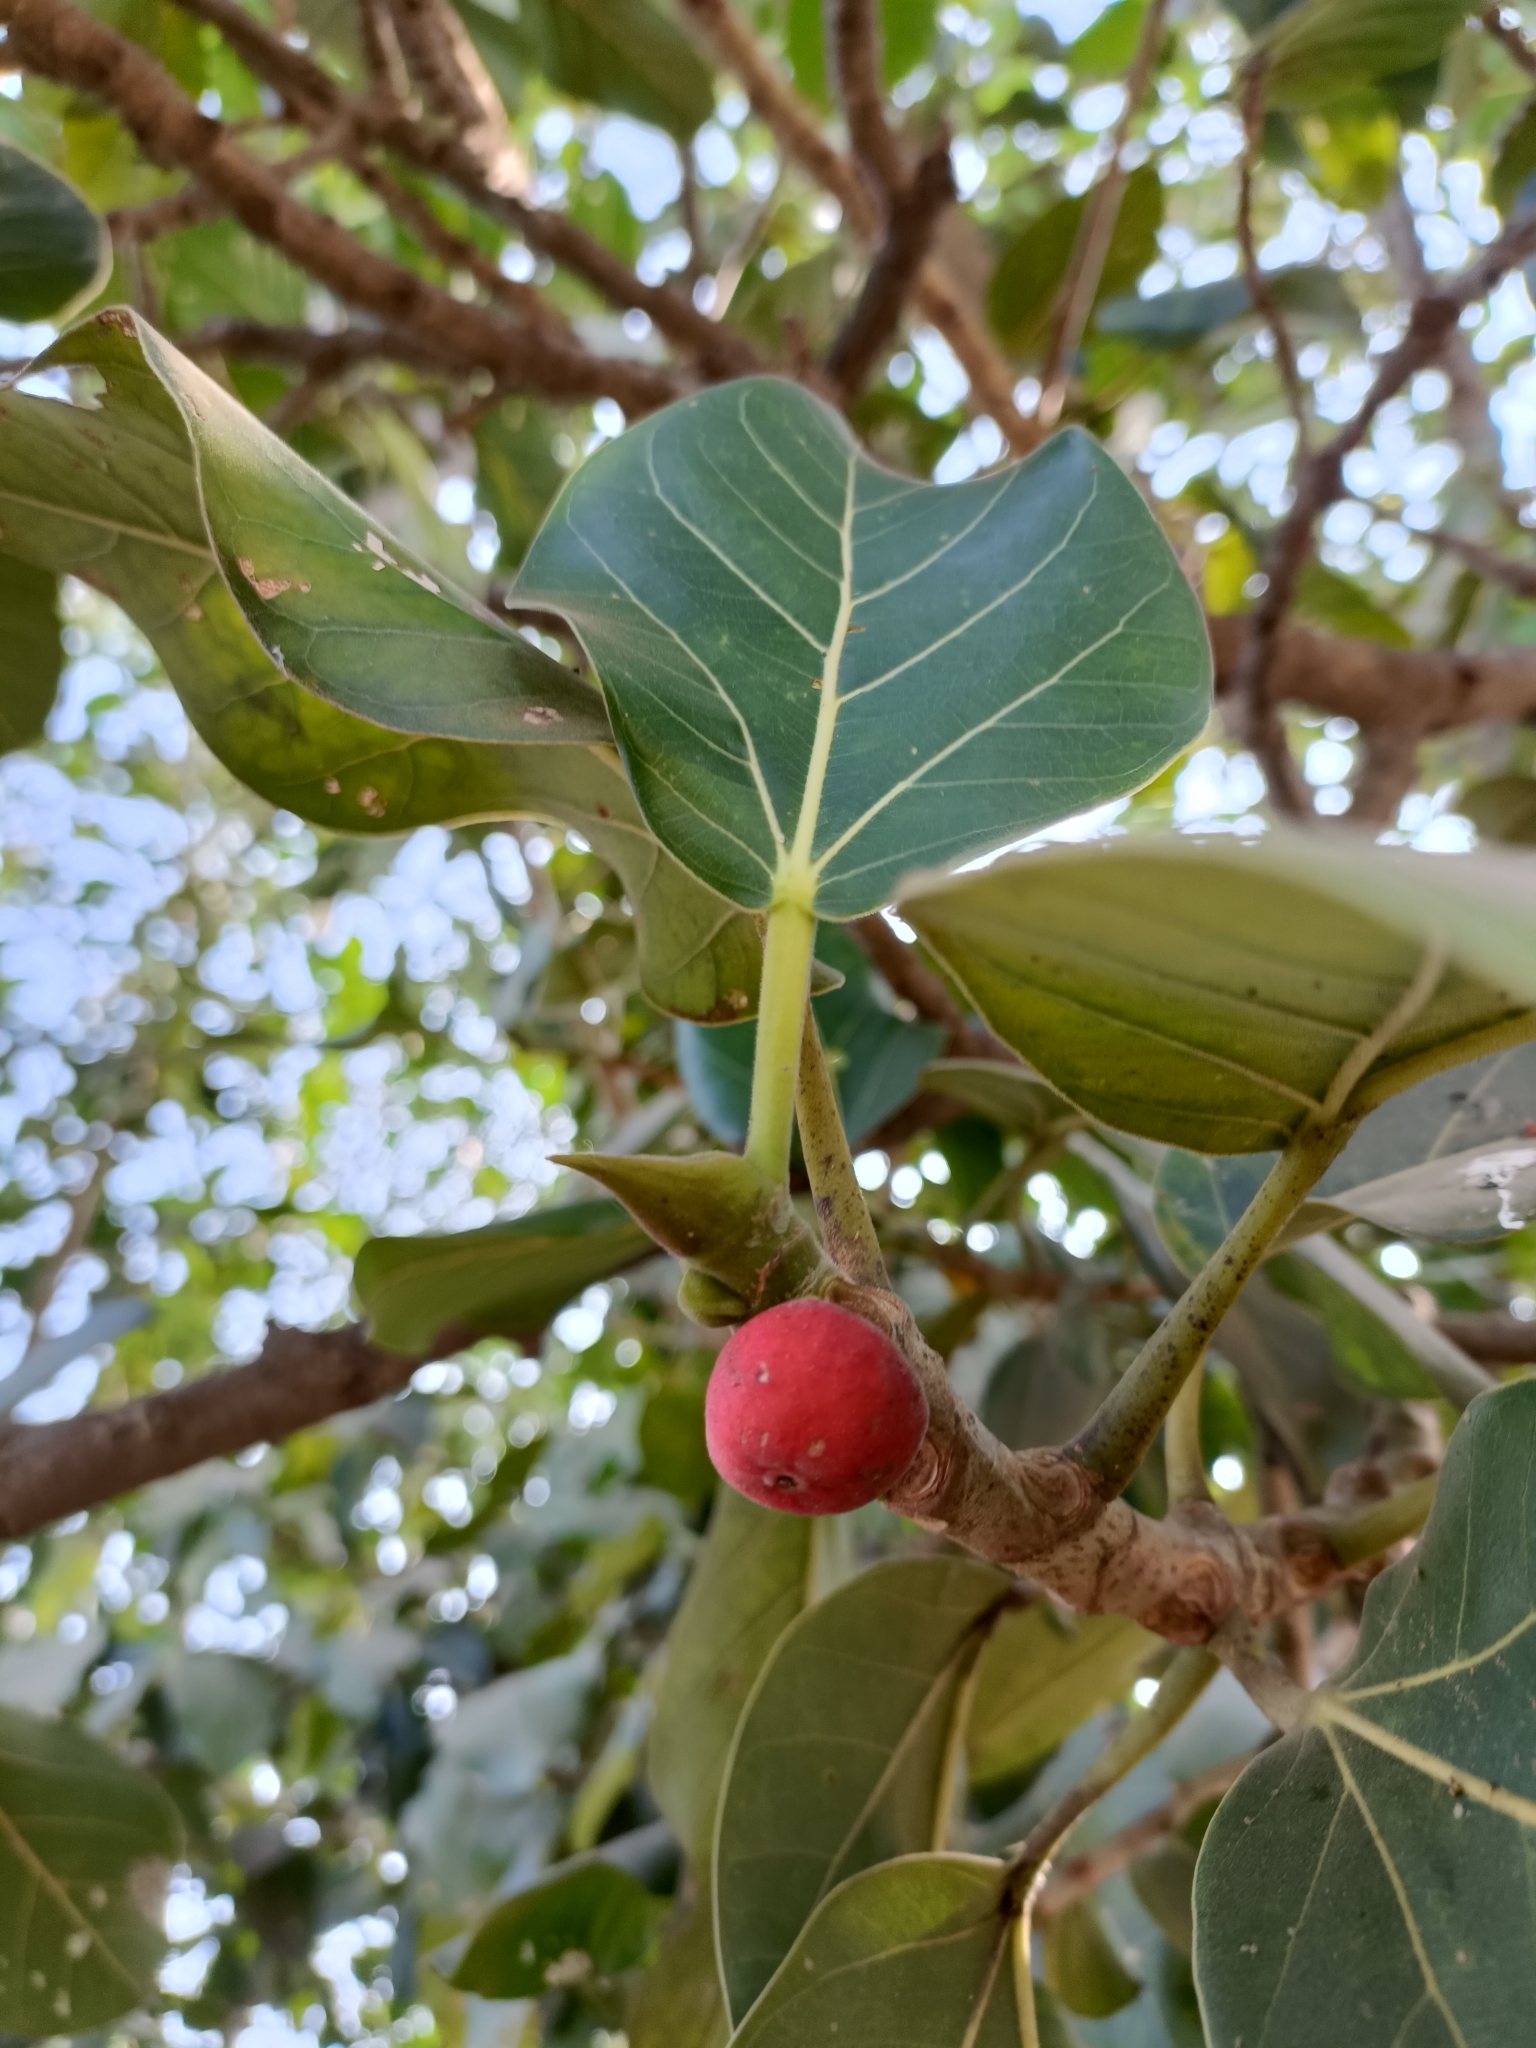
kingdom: Plantae
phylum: Tracheophyta
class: Magnoliopsida
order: Rosales
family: Moraceae
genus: Ficus
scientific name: Ficus benghalensis
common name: Indian banyan
